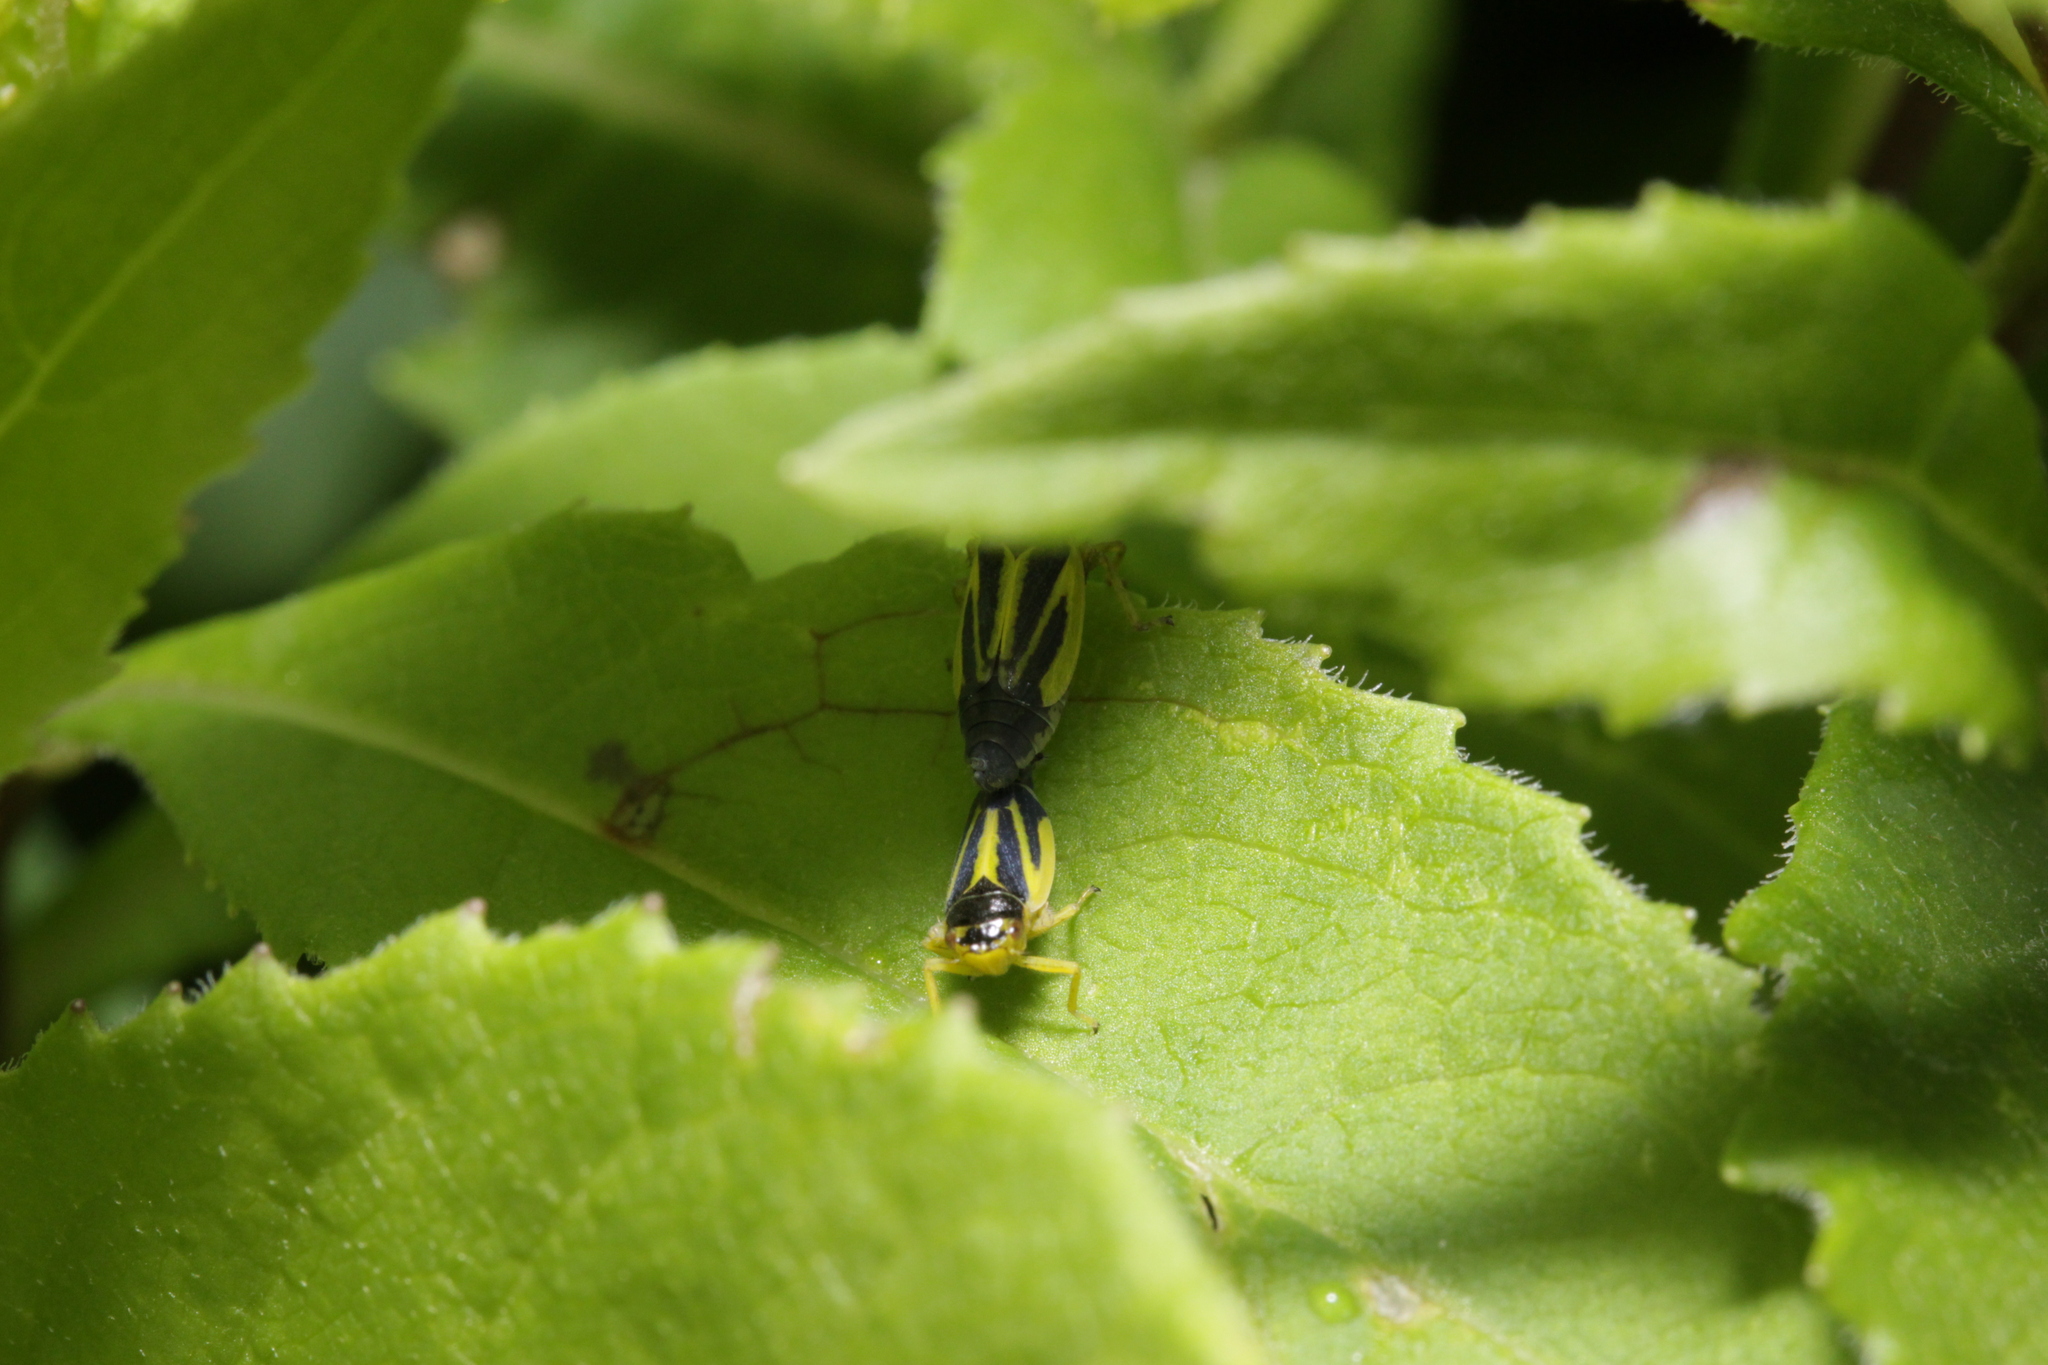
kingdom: Animalia
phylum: Arthropoda
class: Insecta
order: Hemiptera
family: Cicadellidae
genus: Evacanthus
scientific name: Evacanthus interruptus
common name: Leafhopper
